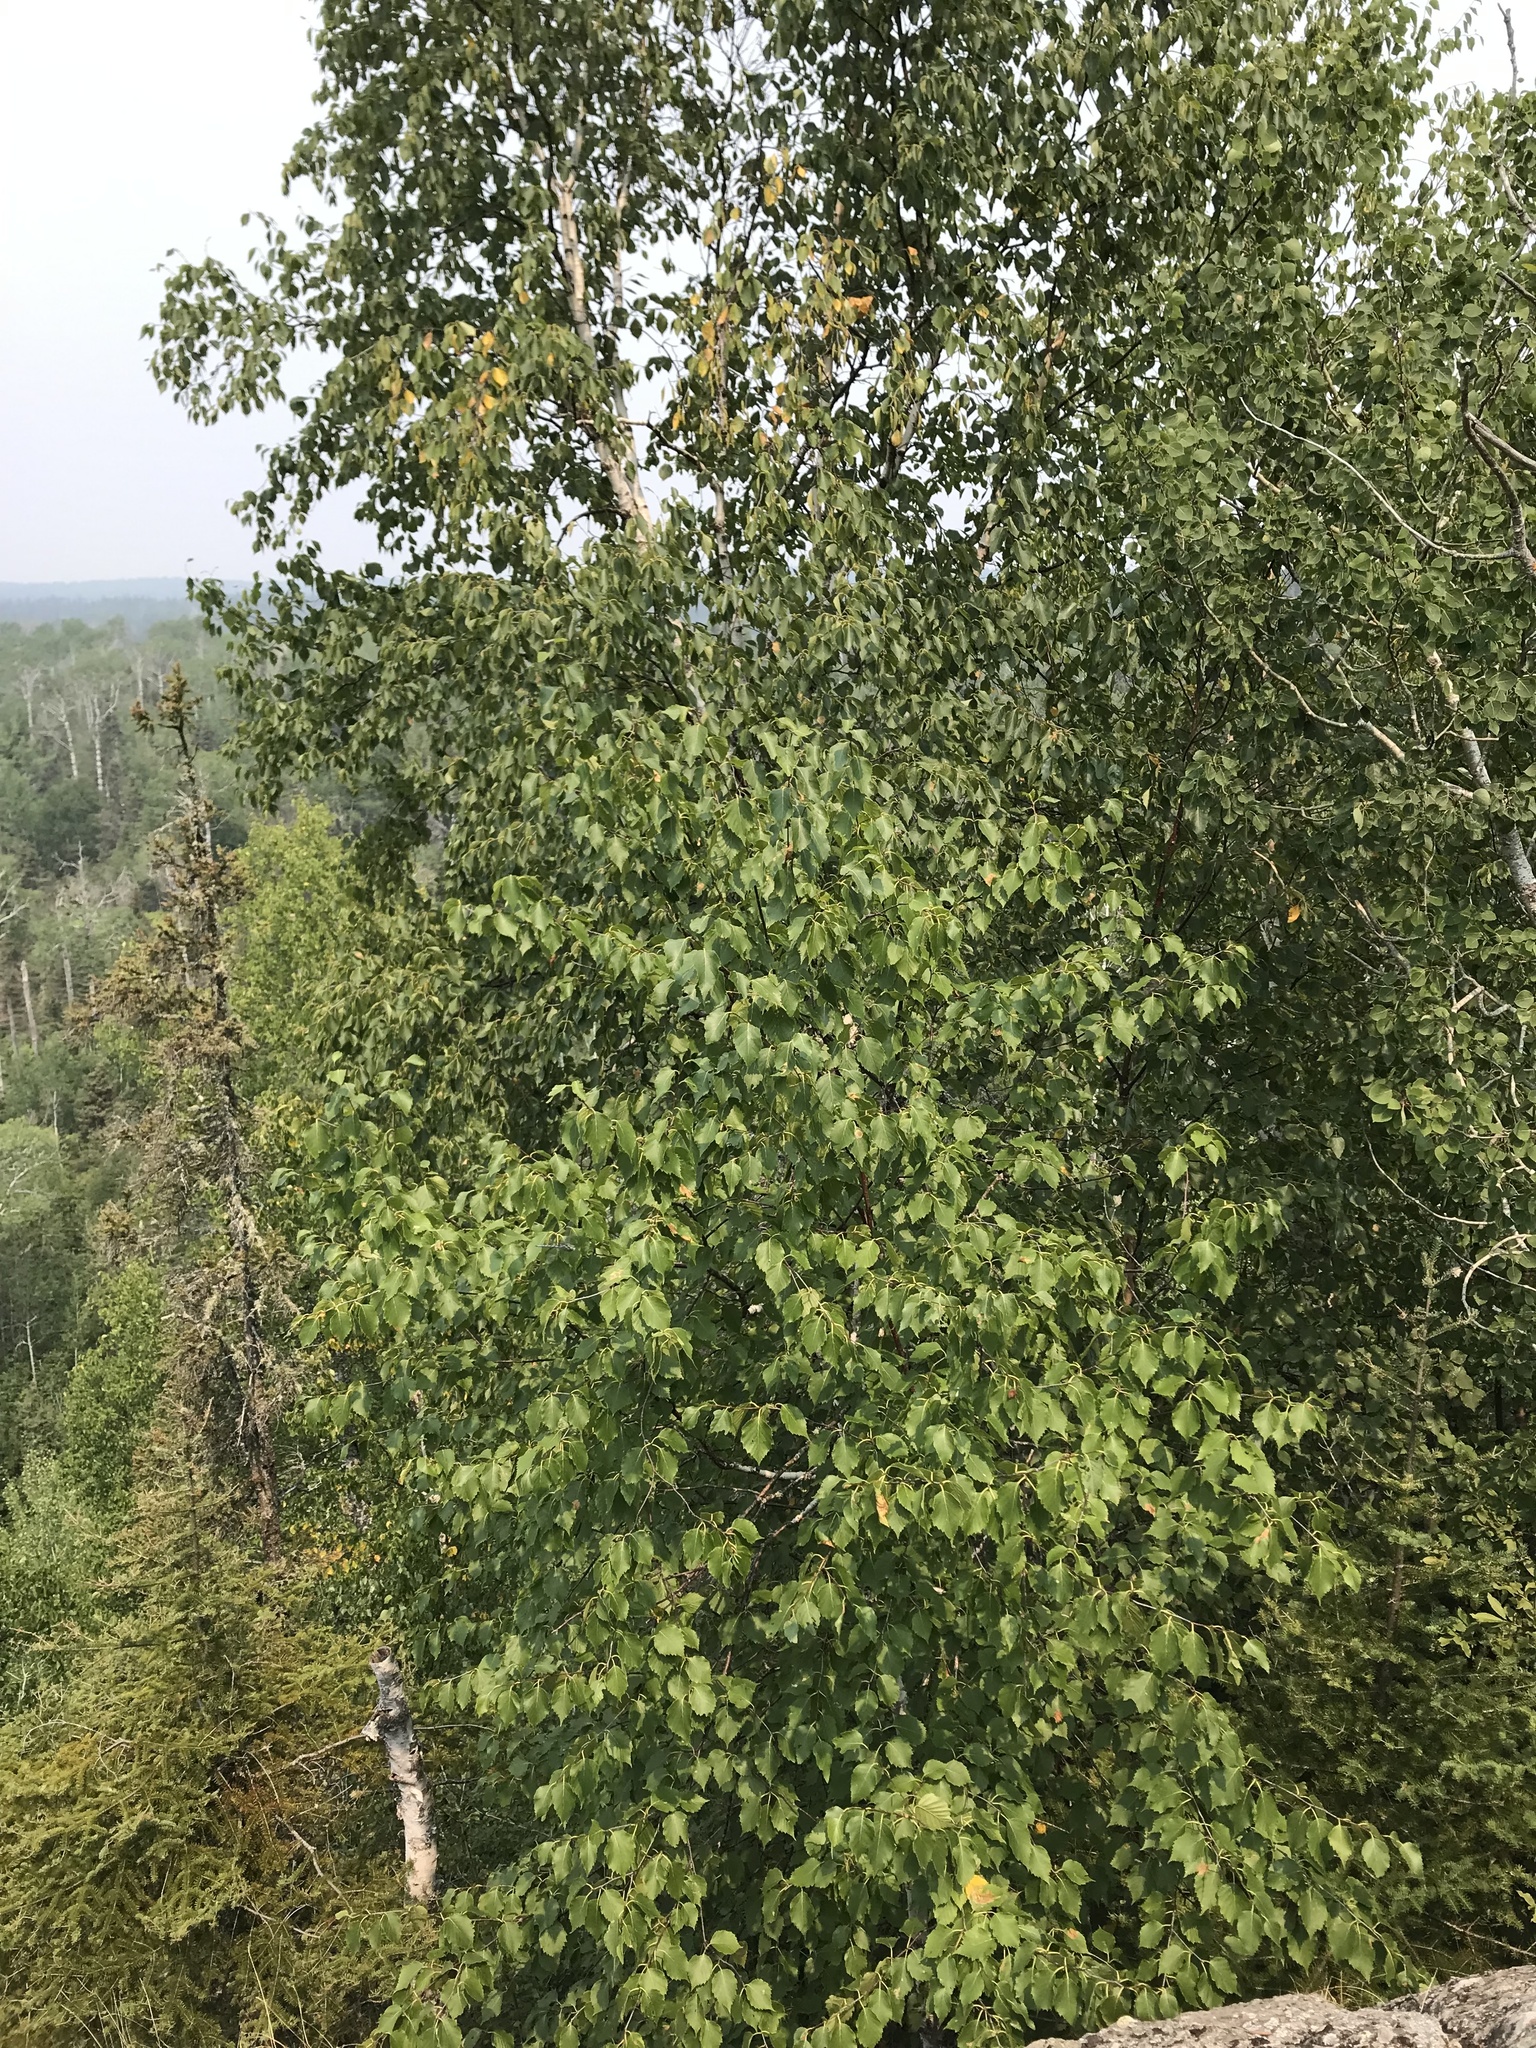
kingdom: Plantae
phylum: Tracheophyta
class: Magnoliopsida
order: Fagales
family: Betulaceae
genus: Betula
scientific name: Betula papyrifera
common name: Paper birch
